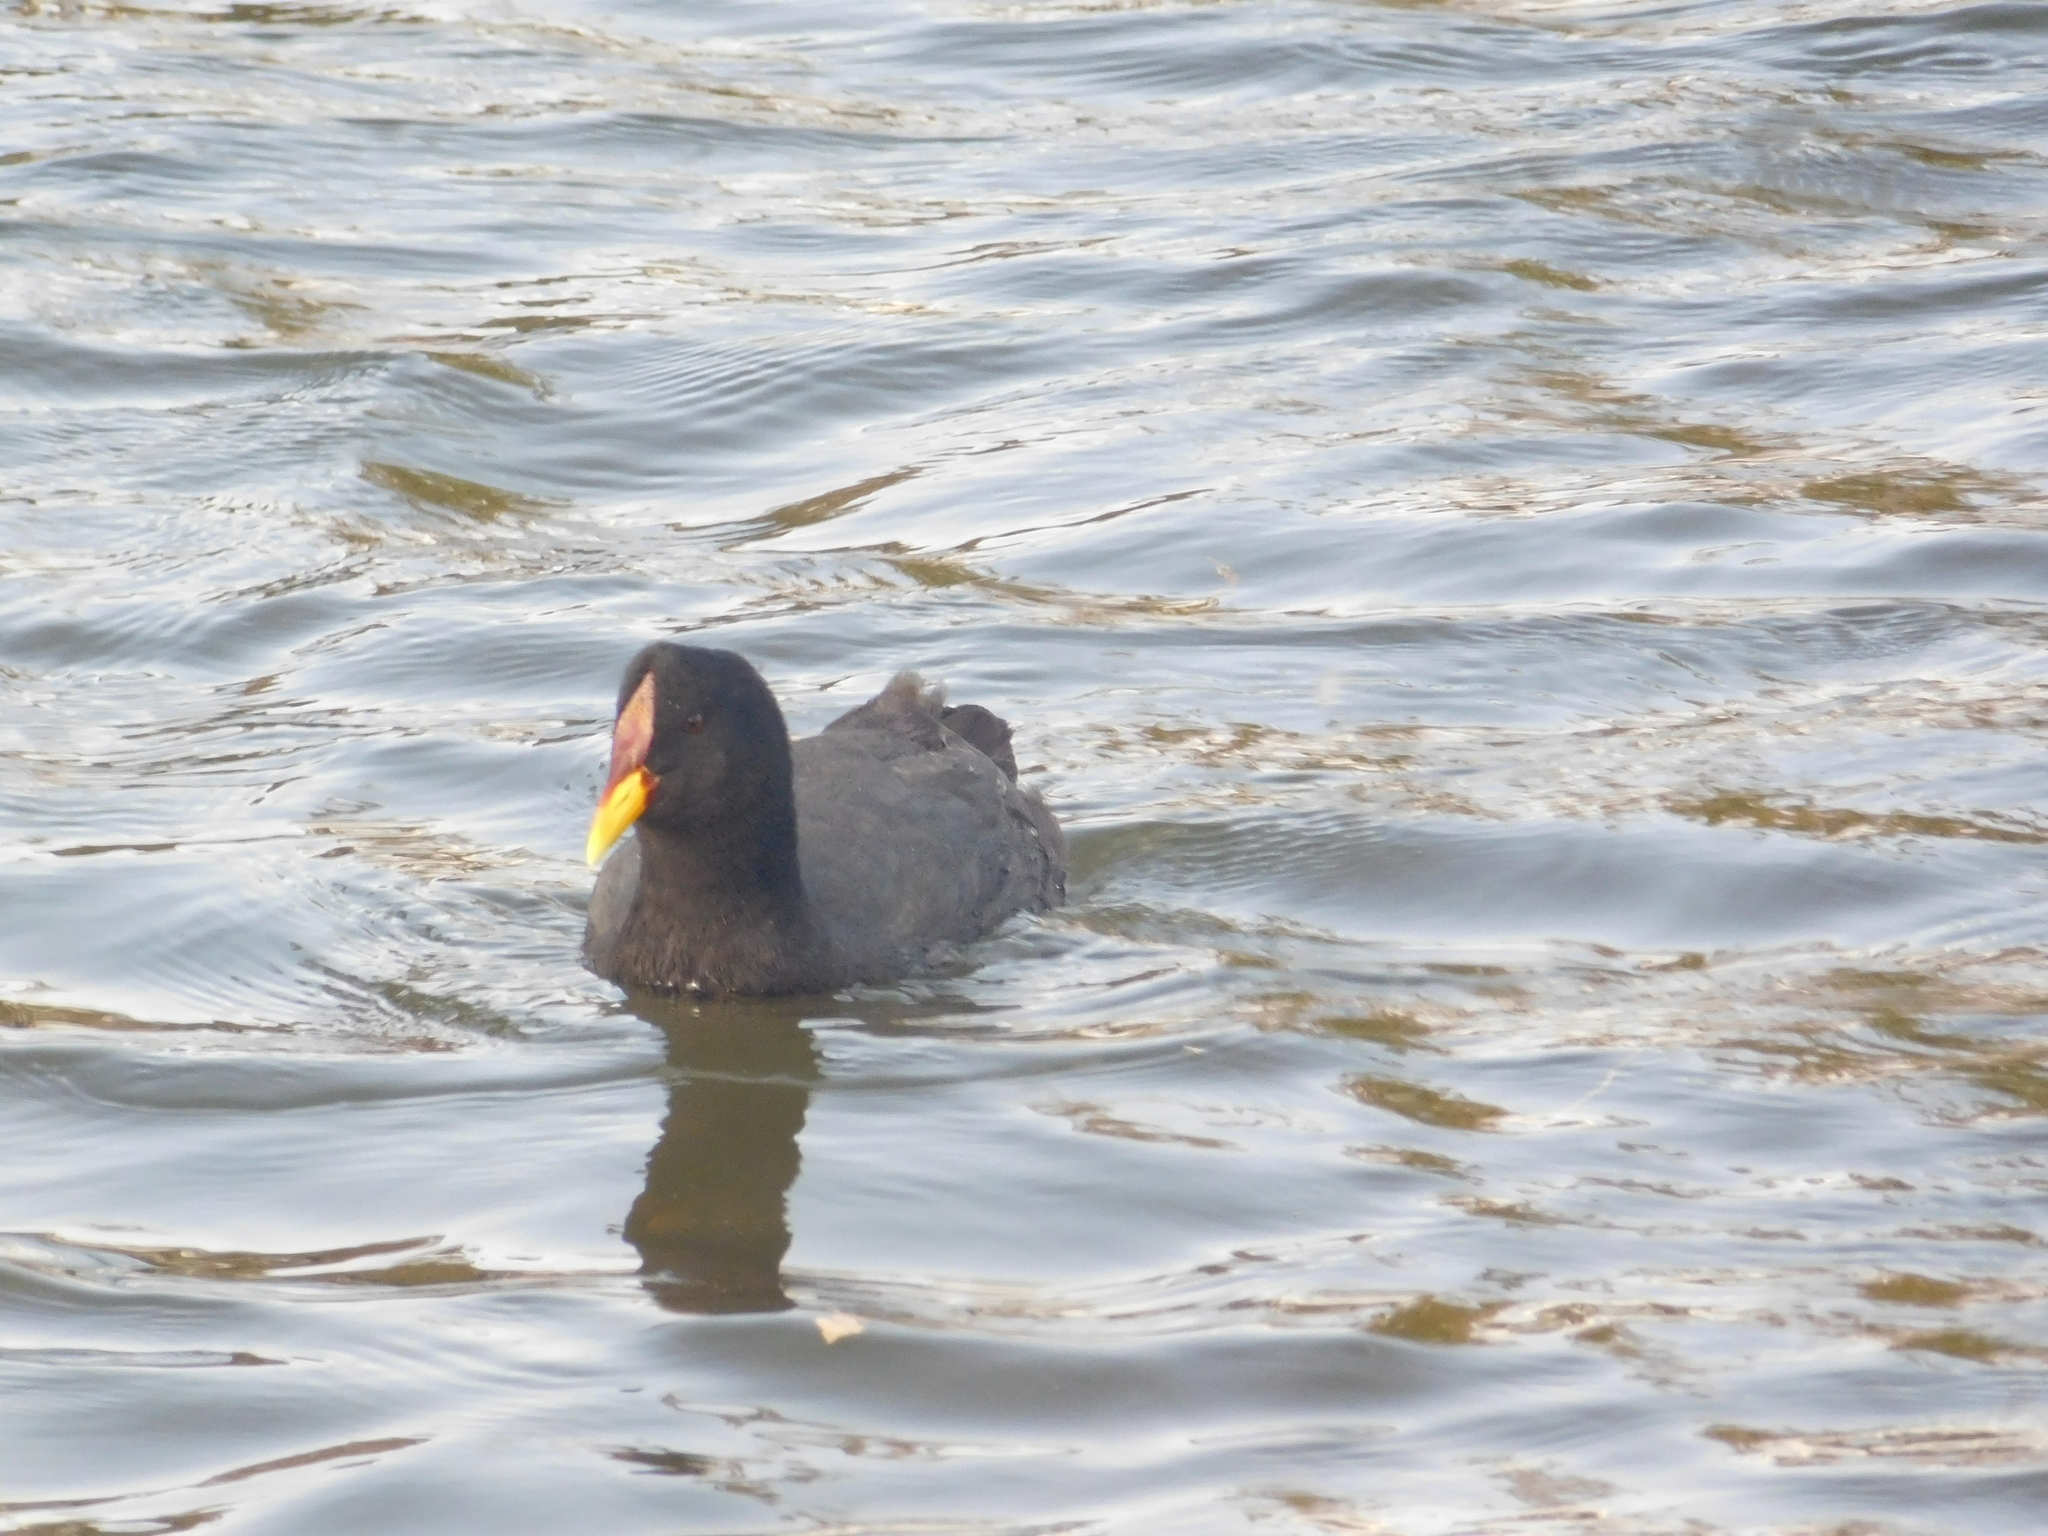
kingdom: Animalia
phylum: Chordata
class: Aves
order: Gruiformes
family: Rallidae
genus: Fulica
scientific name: Fulica rufifrons
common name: Red-fronted coot
